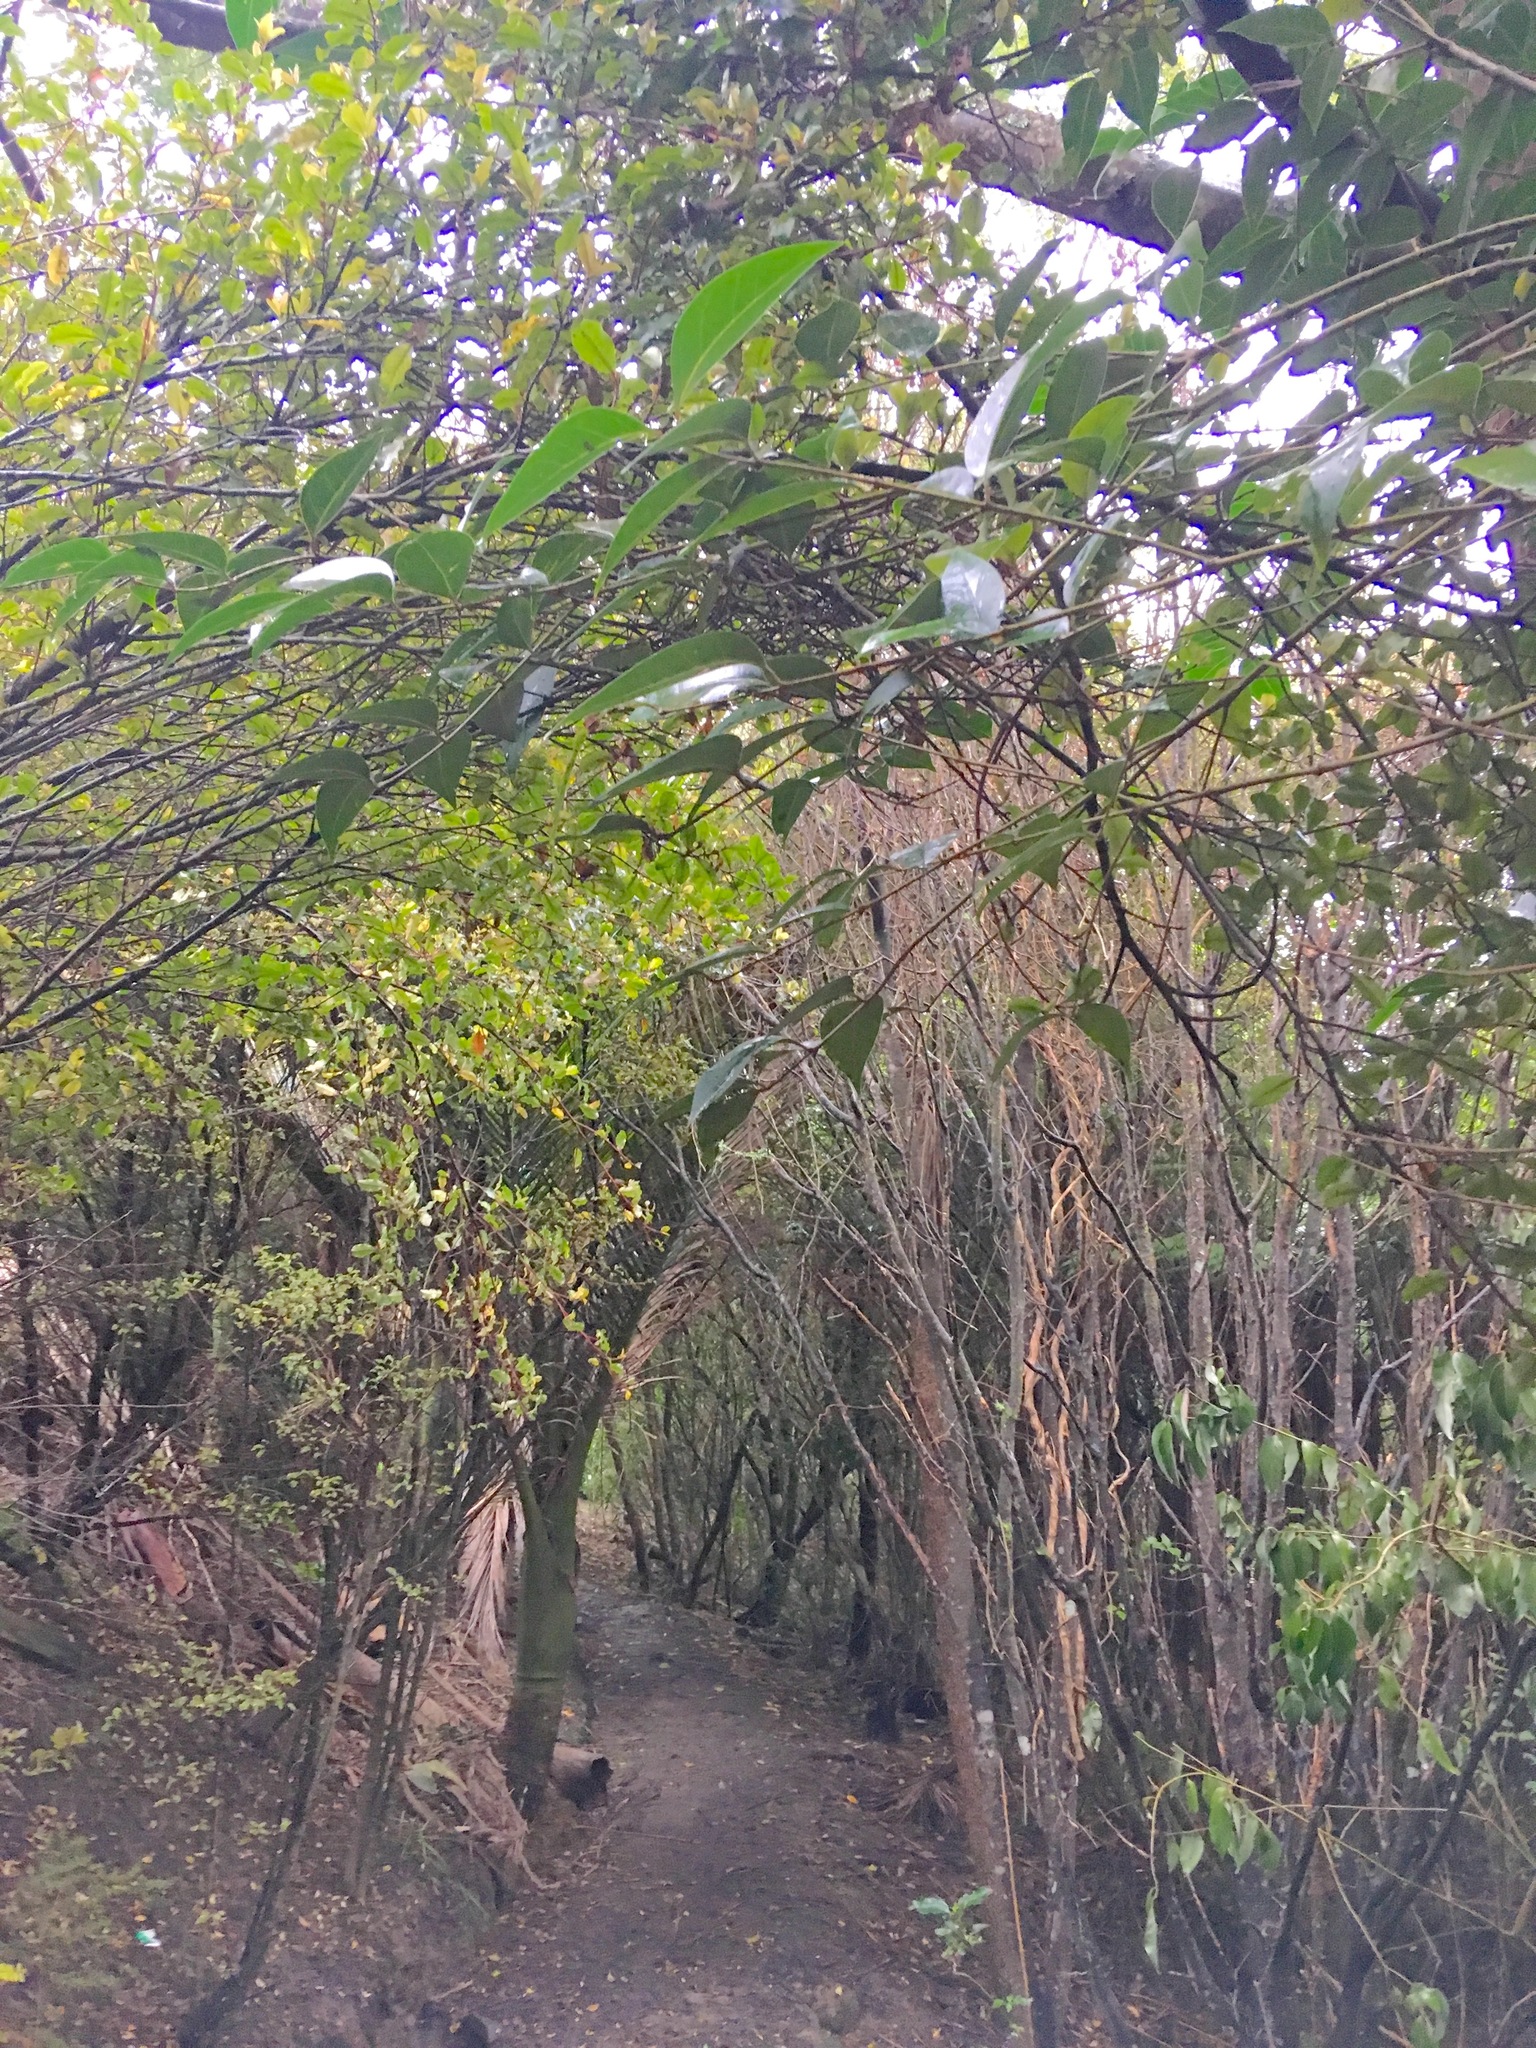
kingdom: Plantae
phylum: Tracheophyta
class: Liliopsida
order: Arecales
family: Arecaceae
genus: Rhopalostylis
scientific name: Rhopalostylis sapida
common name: Feather-duster palm
